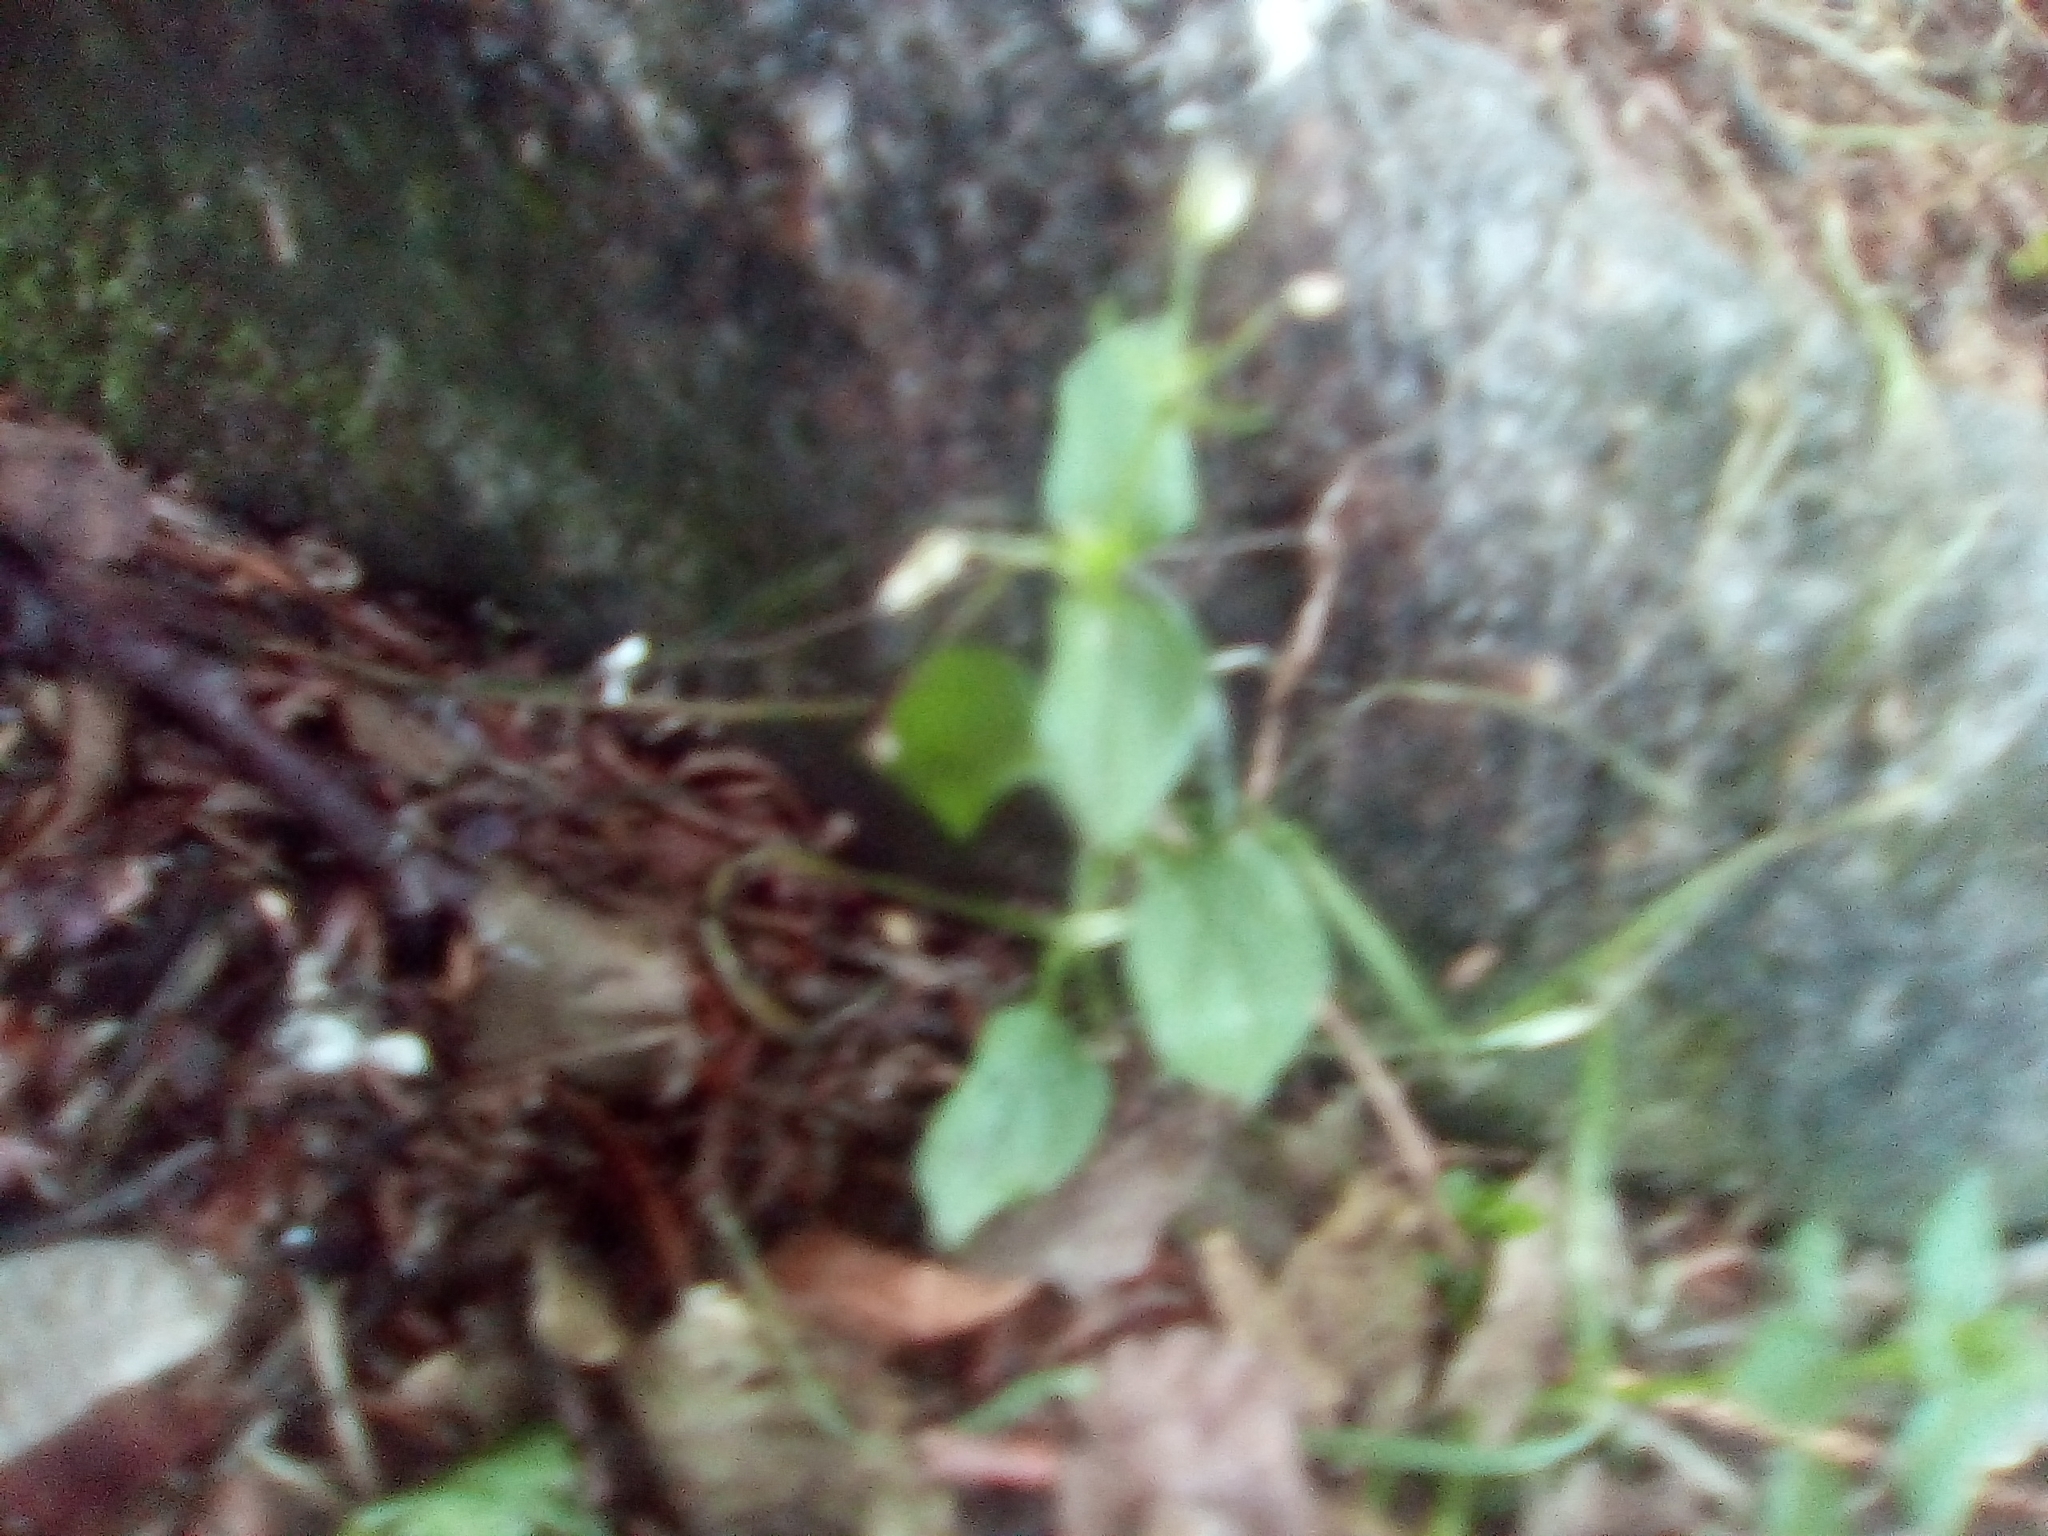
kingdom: Plantae
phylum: Tracheophyta
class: Magnoliopsida
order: Ericales
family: Balsaminaceae
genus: Impatiens
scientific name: Impatiens parviflora
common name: Small balsam
